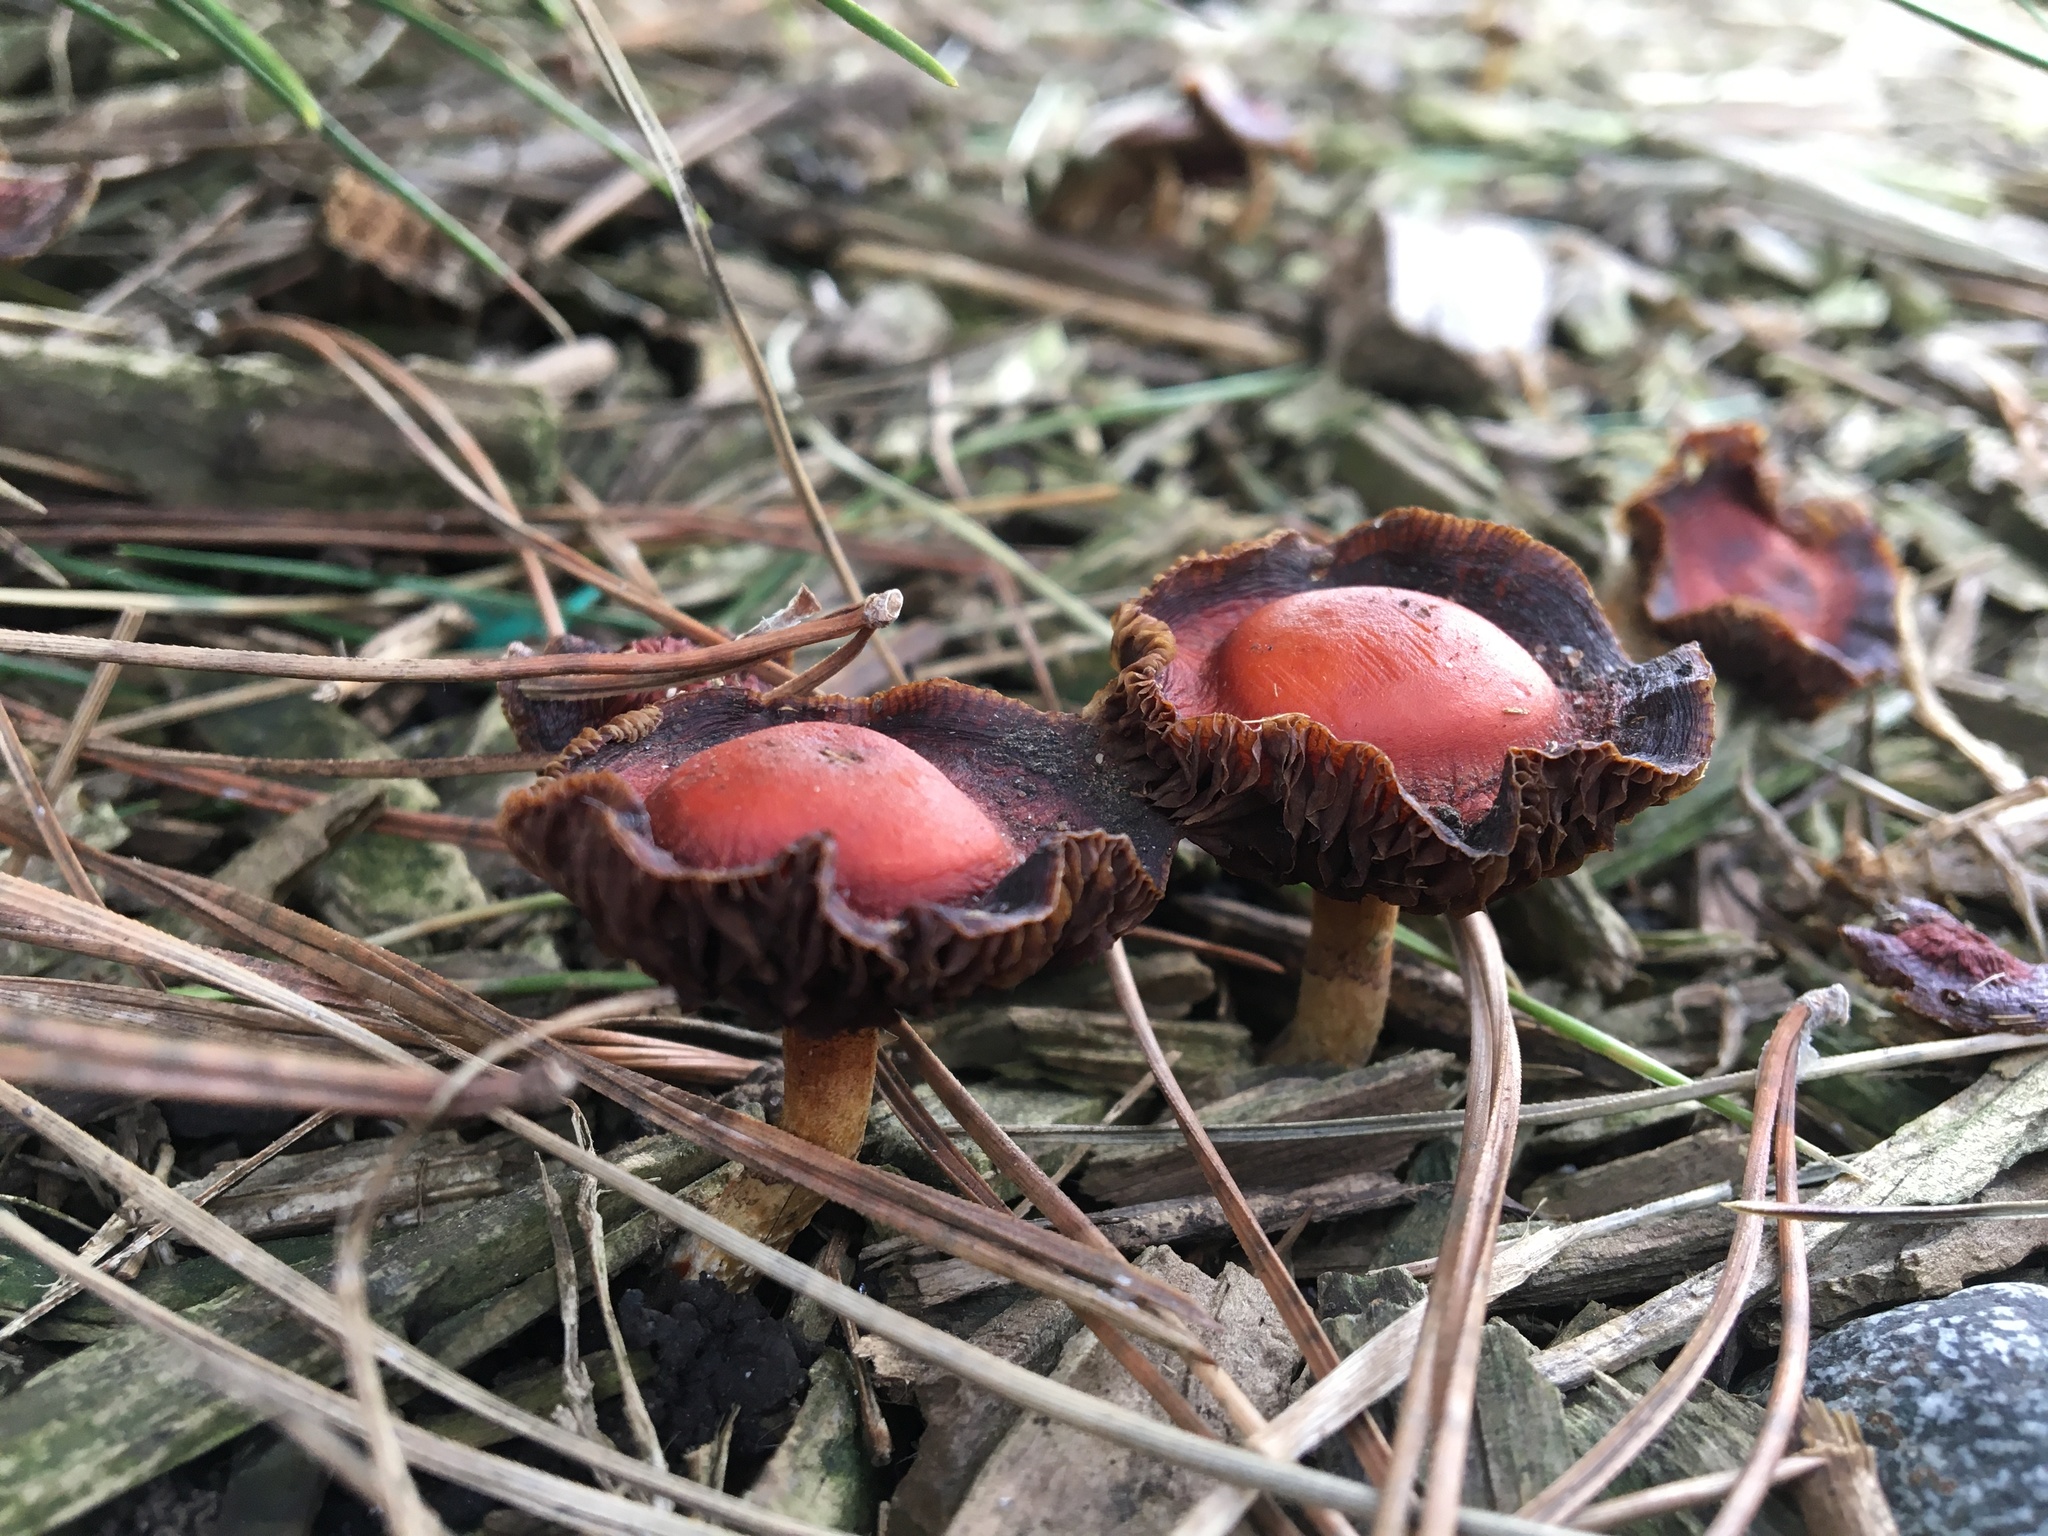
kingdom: Fungi
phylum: Basidiomycota
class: Agaricomycetes
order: Agaricales
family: Strophariaceae
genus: Leratiomyces
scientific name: Leratiomyces ceres
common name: Redlead roundhead
